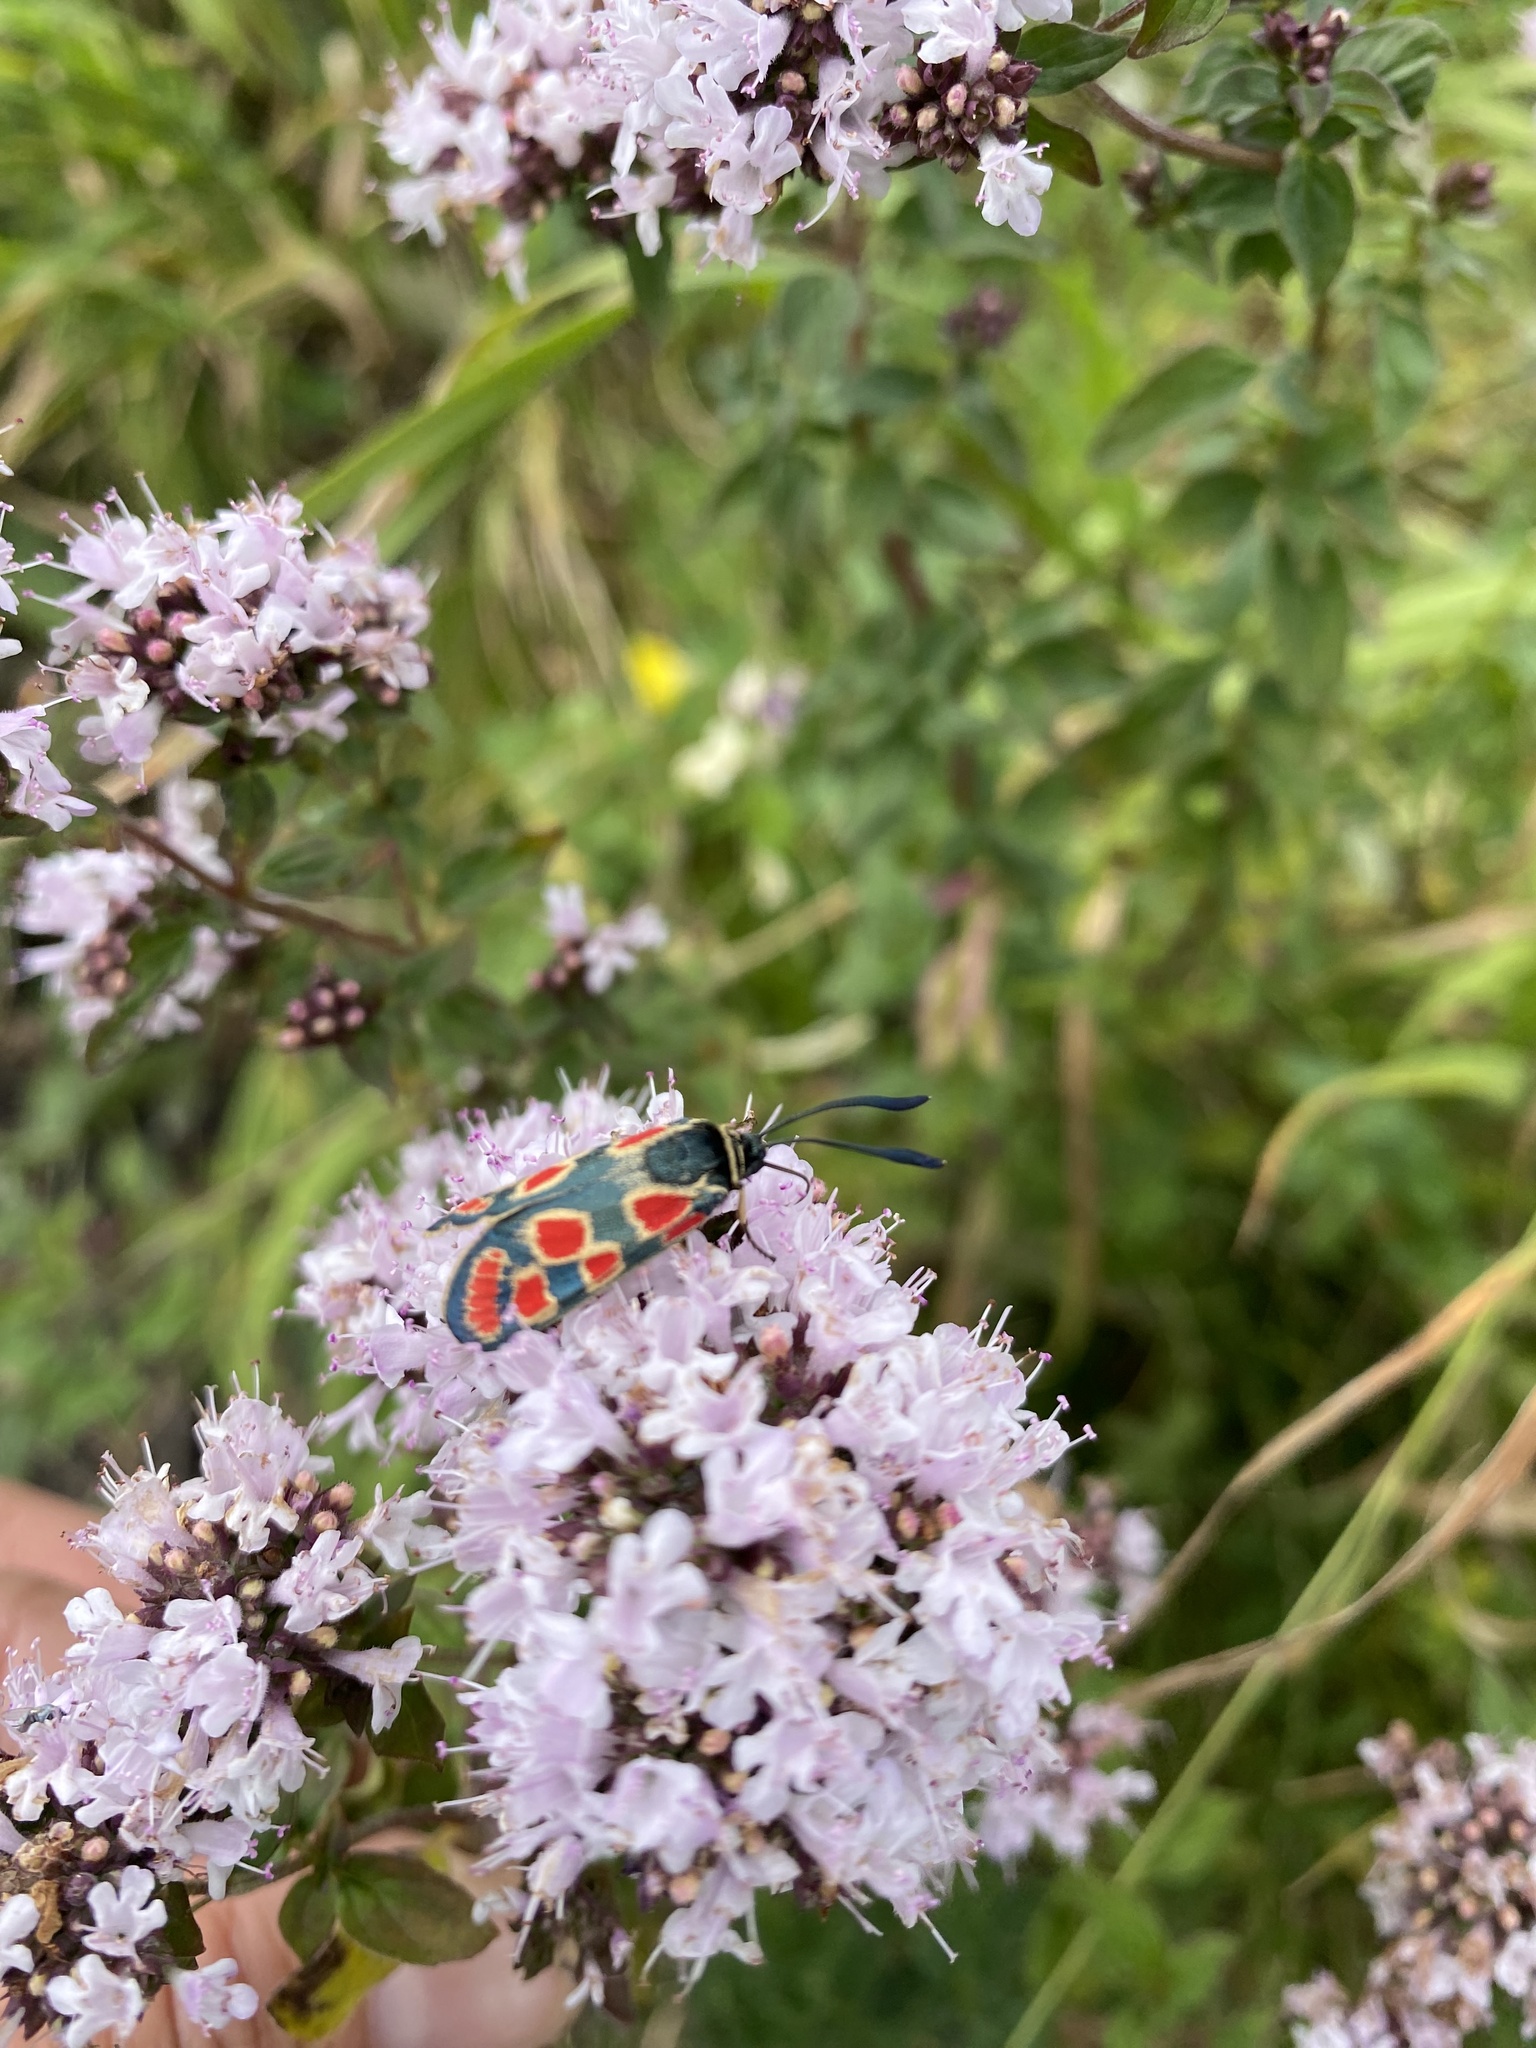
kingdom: Animalia
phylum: Arthropoda
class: Insecta
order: Lepidoptera
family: Zygaenidae
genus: Zygaena
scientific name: Zygaena carniolica
